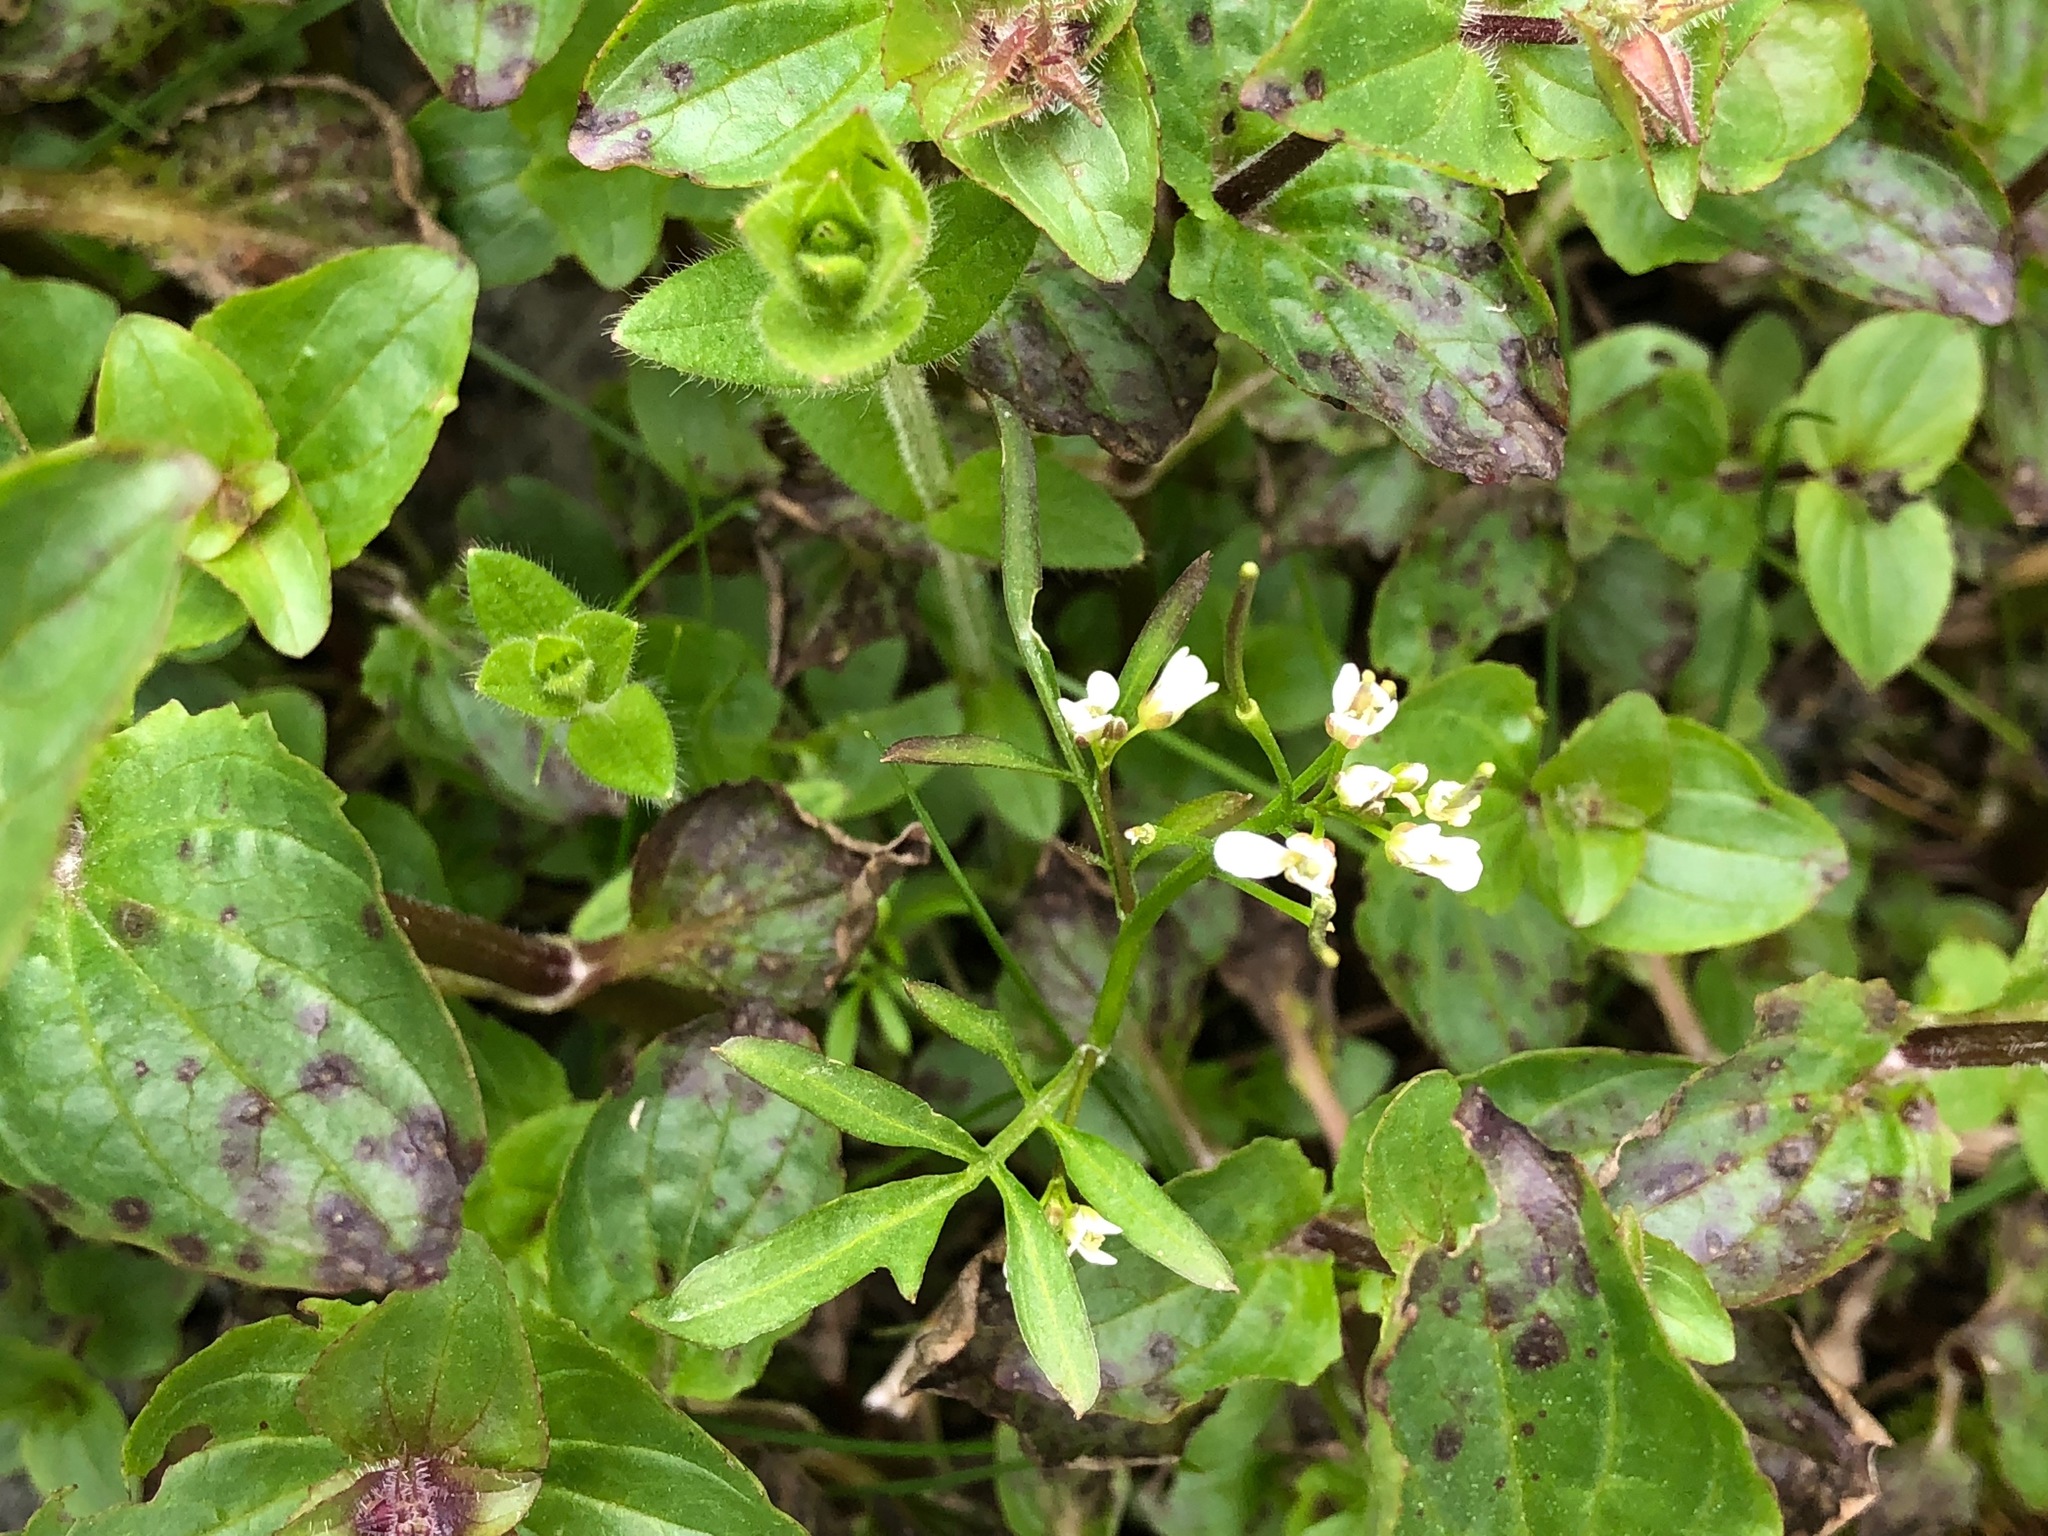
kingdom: Plantae
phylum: Tracheophyta
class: Magnoliopsida
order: Brassicales
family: Brassicaceae
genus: Cardamine
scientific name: Cardamine umbellata
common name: Siberian bittercress
